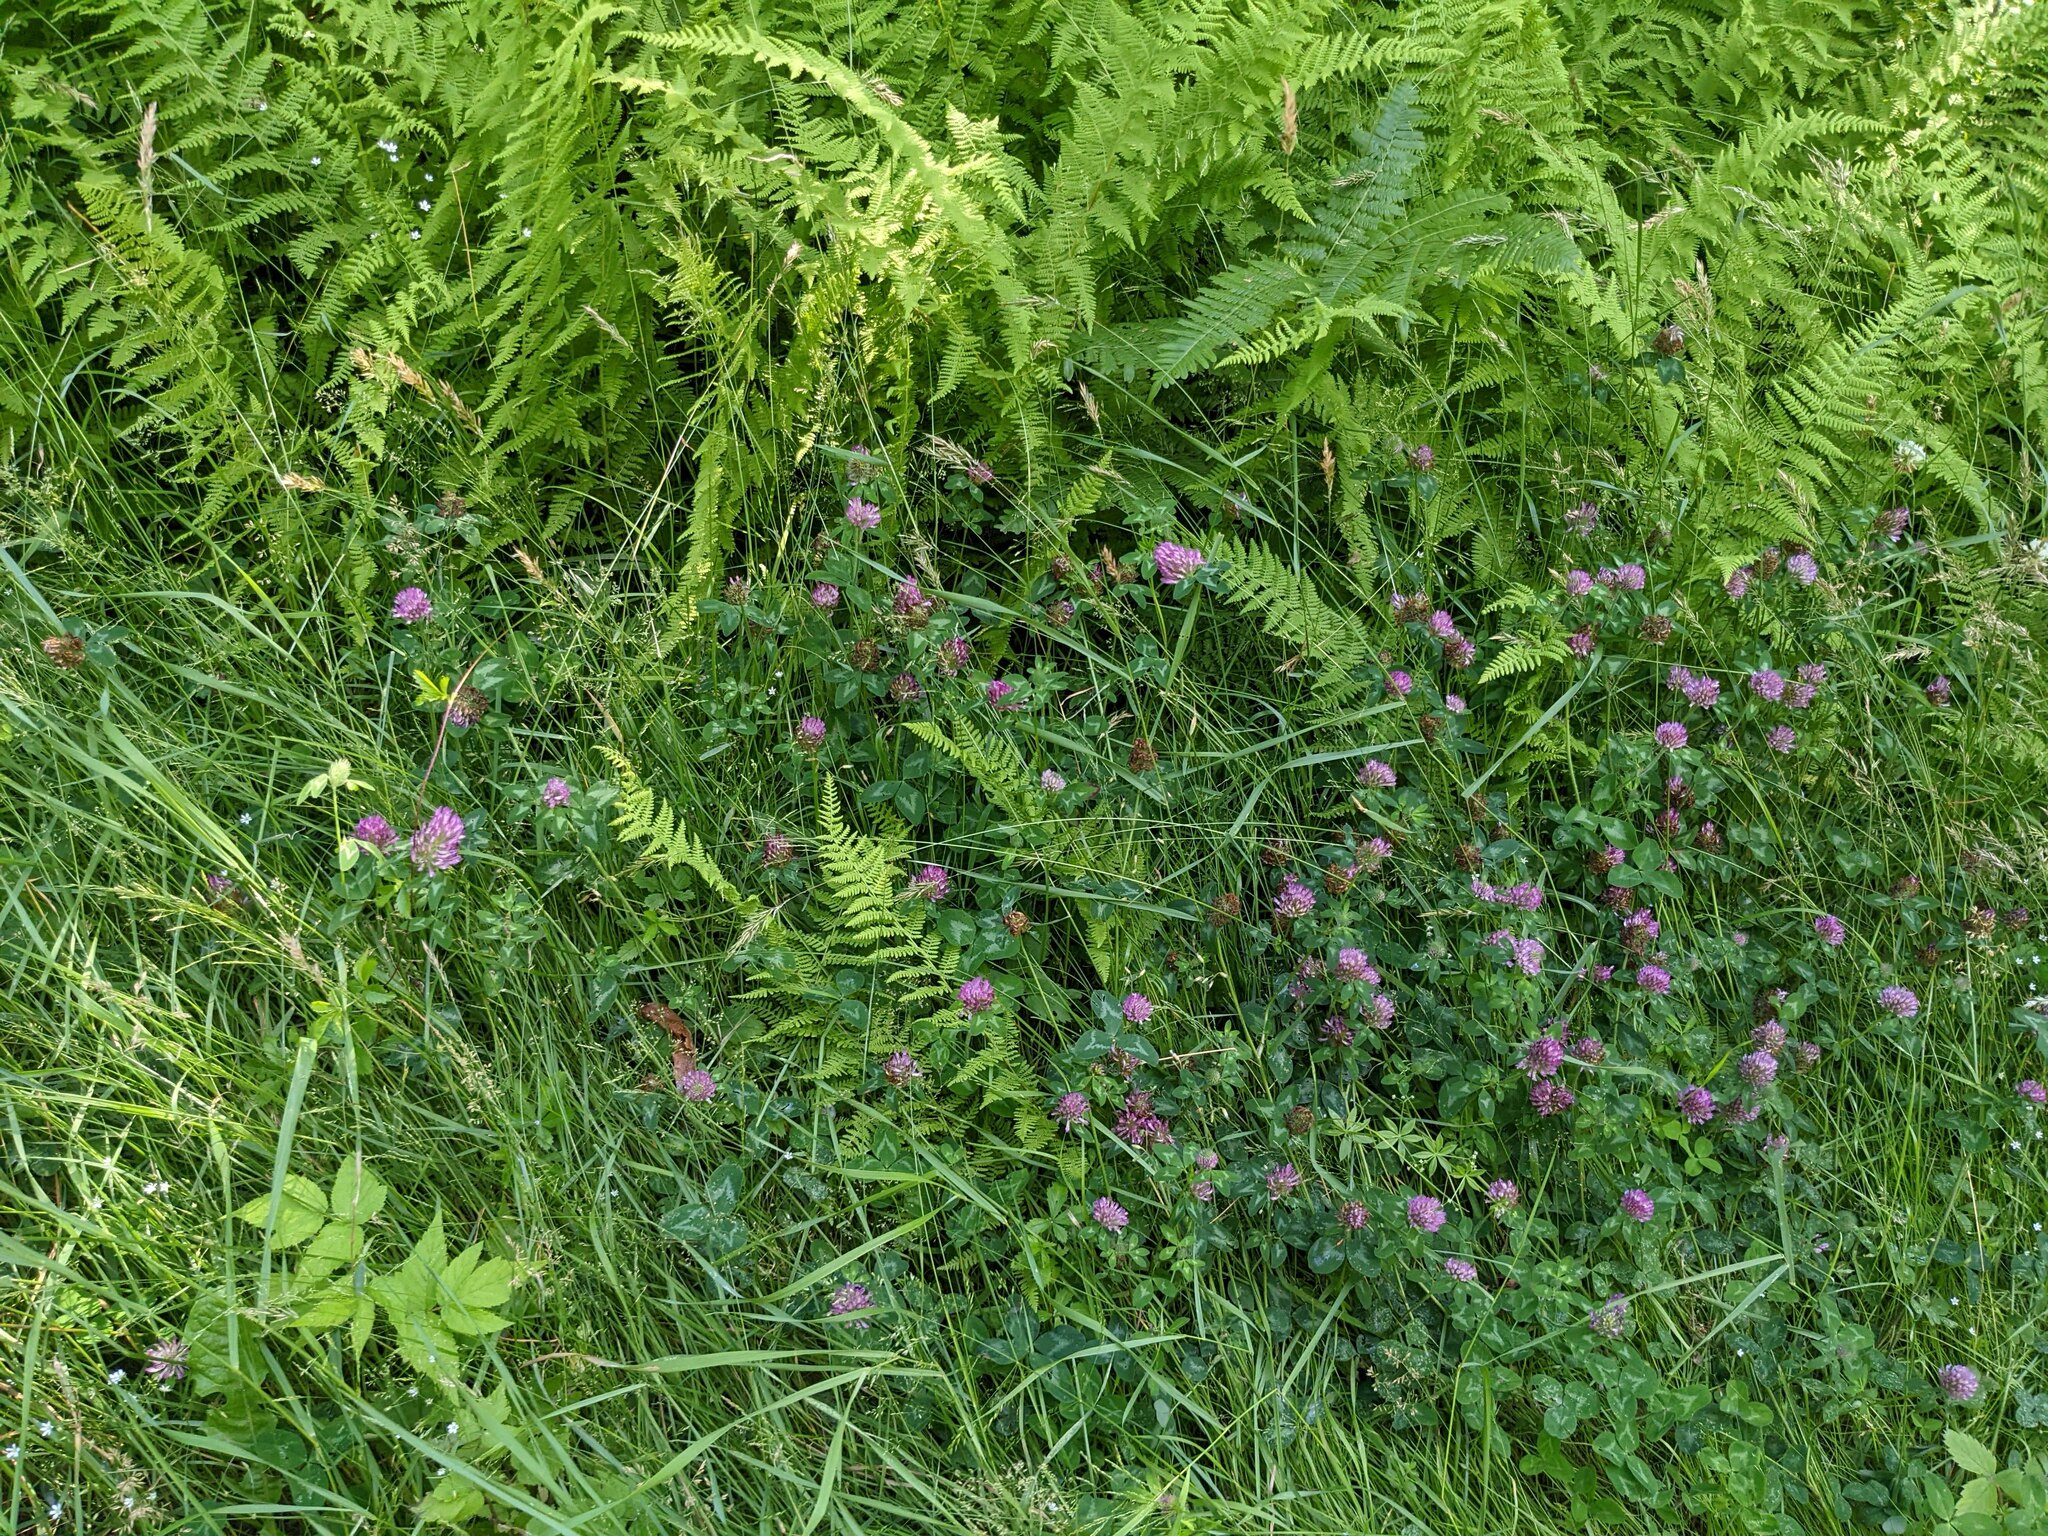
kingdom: Plantae
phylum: Tracheophyta
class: Magnoliopsida
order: Fabales
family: Fabaceae
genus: Trifolium
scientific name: Trifolium pratense
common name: Red clover
